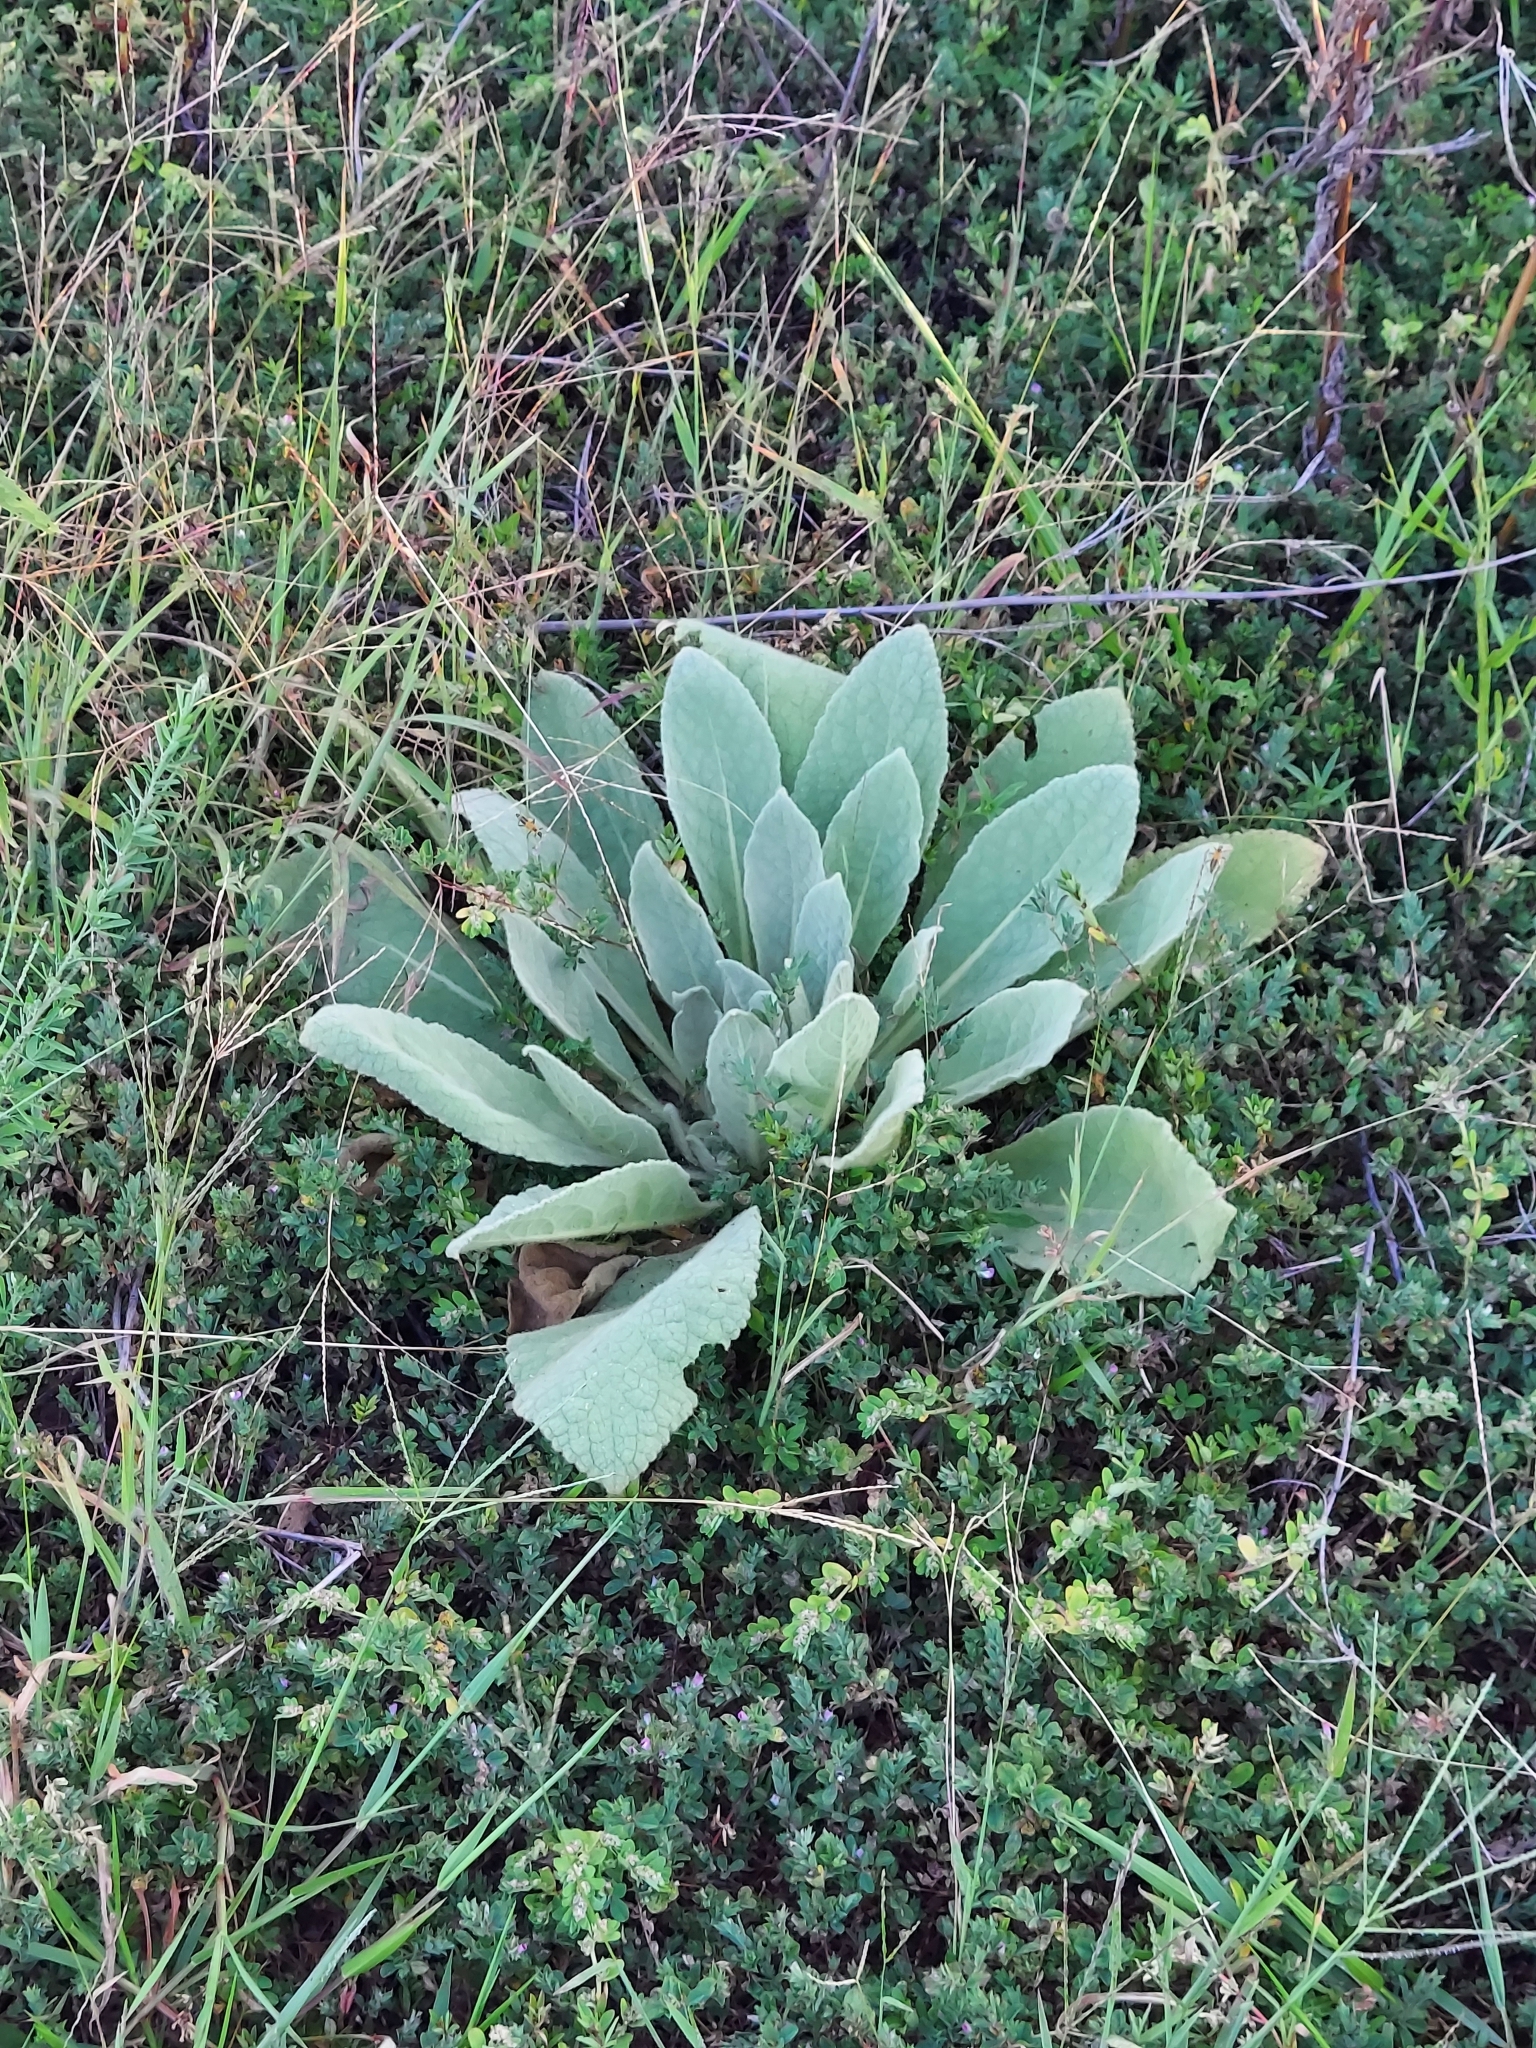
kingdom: Plantae
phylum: Tracheophyta
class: Magnoliopsida
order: Lamiales
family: Scrophulariaceae
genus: Verbascum
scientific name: Verbascum thapsus
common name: Common mullein
